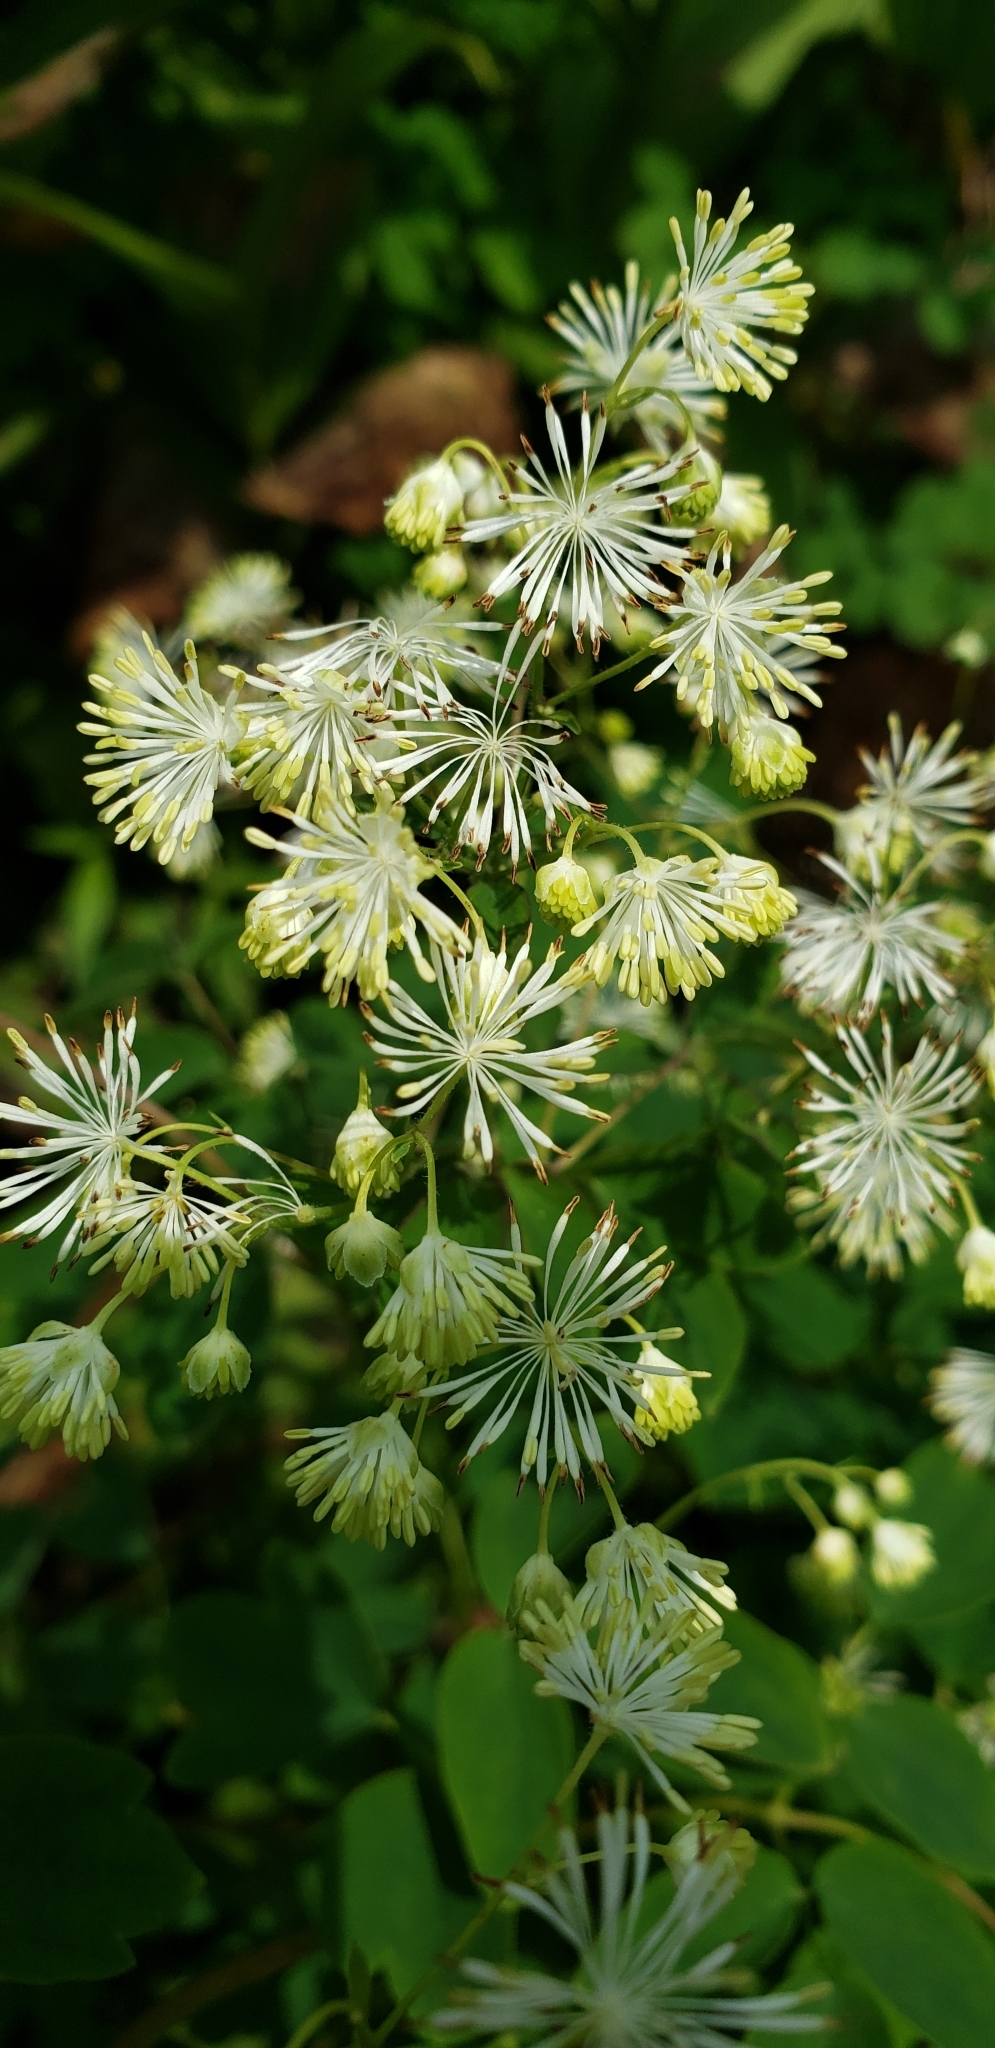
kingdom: Plantae
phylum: Tracheophyta
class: Magnoliopsida
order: Ranunculales
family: Ranunculaceae
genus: Thalictrum
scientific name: Thalictrum pubescens
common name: King-of-the-meadow
